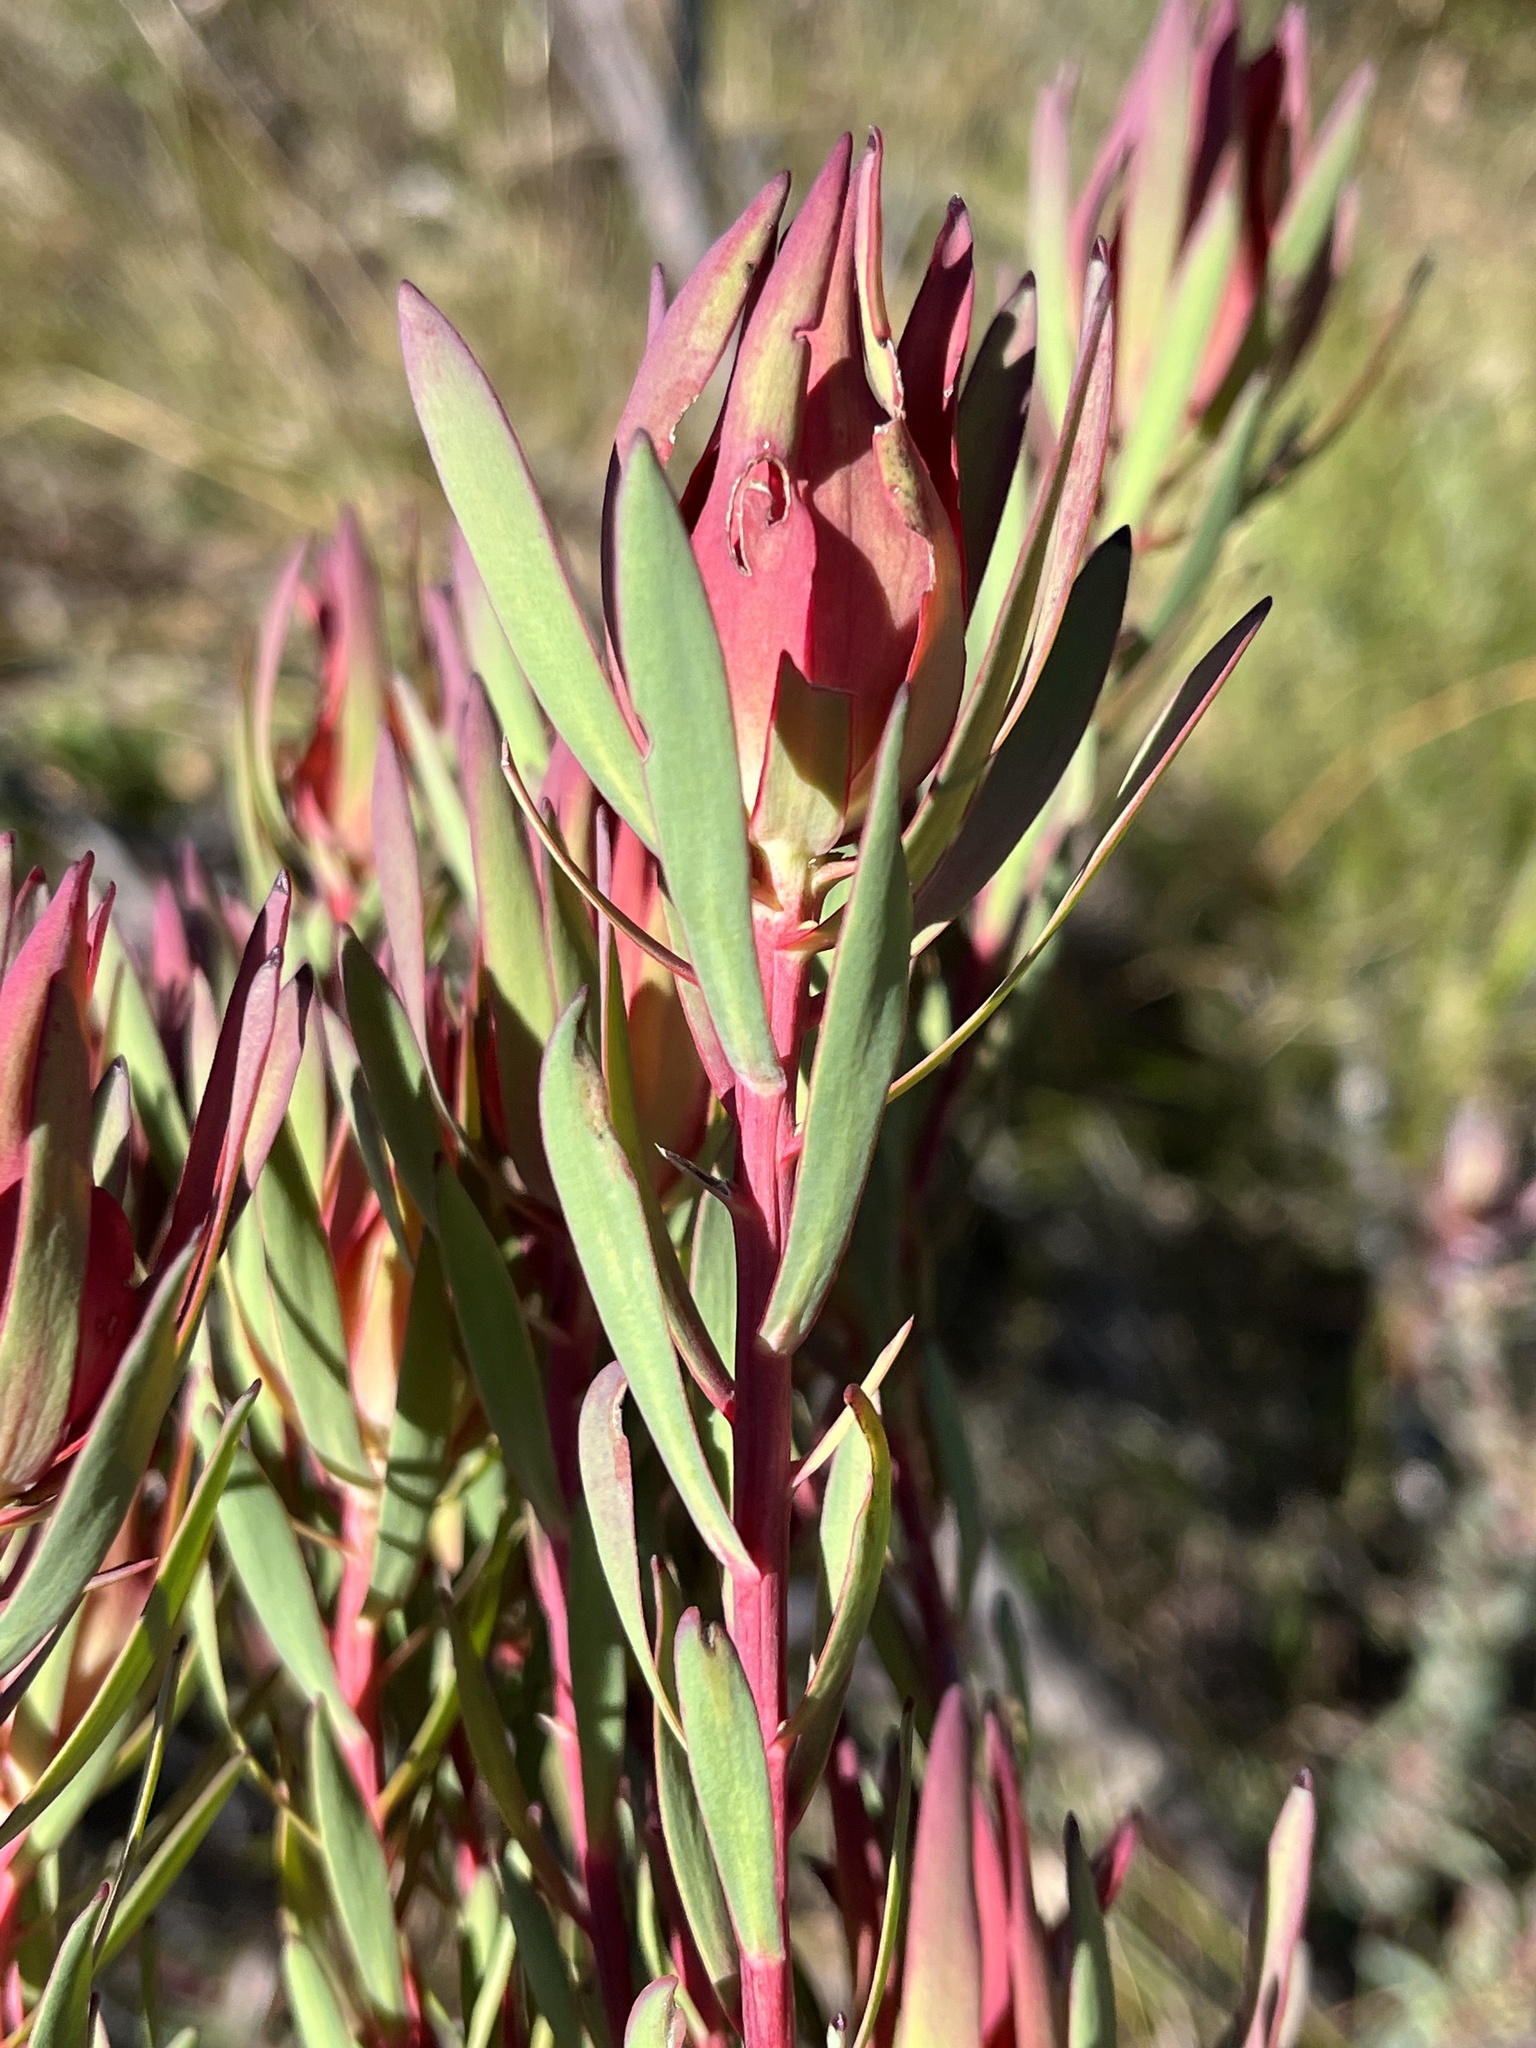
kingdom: Plantae
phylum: Tracheophyta
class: Magnoliopsida
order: Proteales
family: Proteaceae
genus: Leucadendron
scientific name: Leucadendron salignum
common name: Common sunshine conebush
